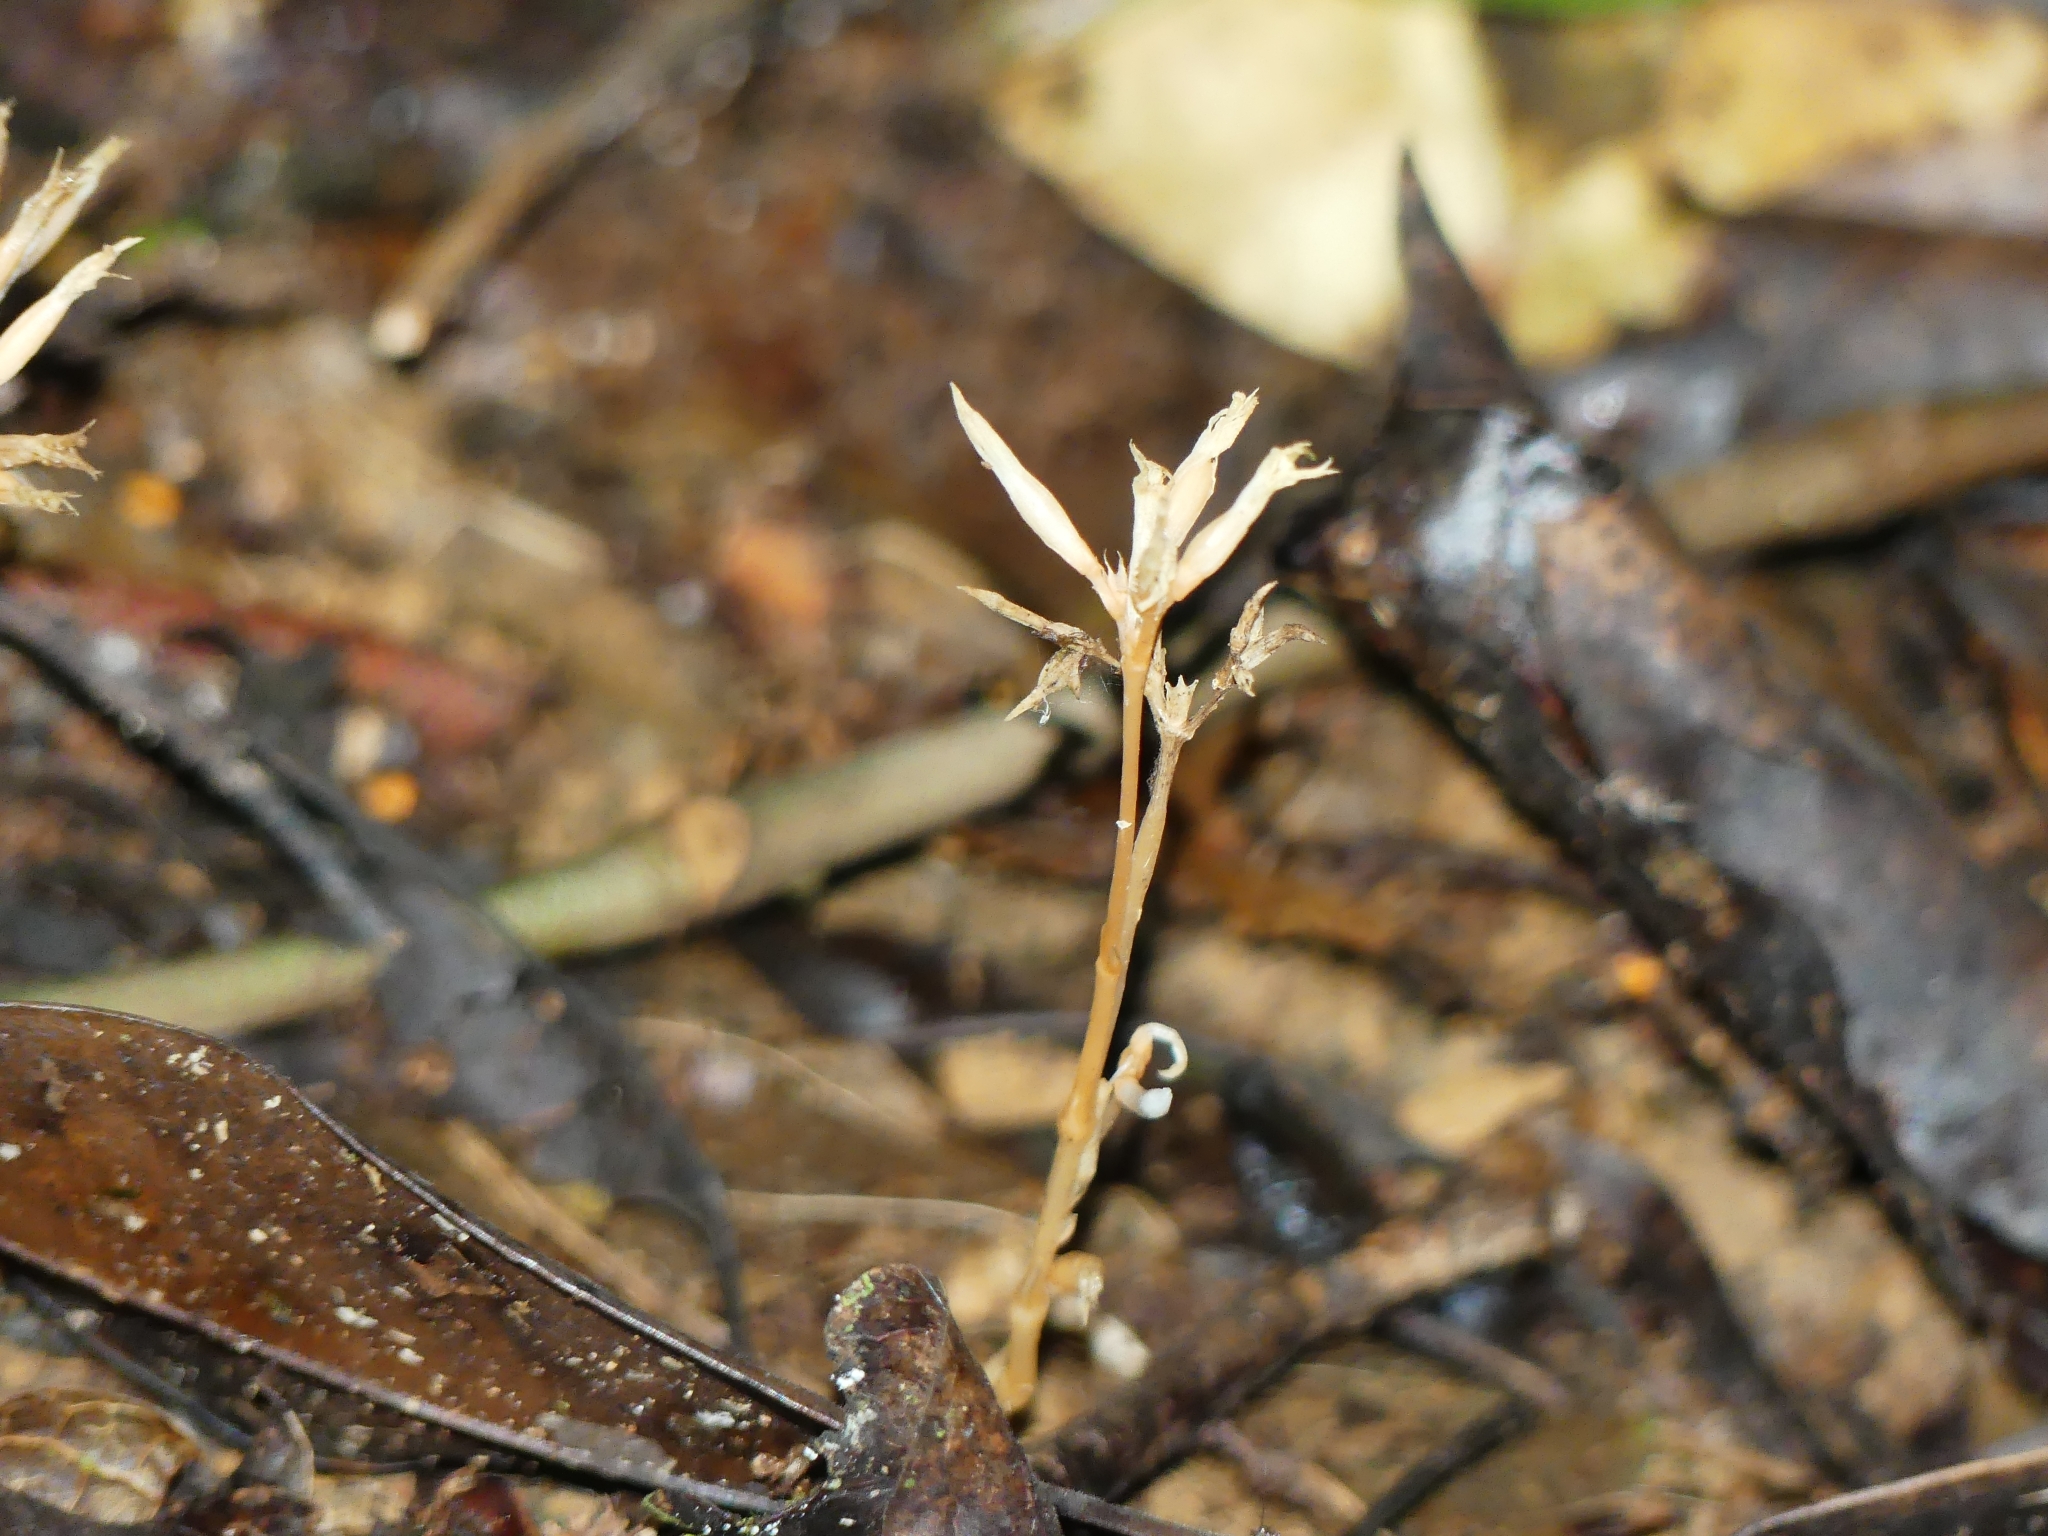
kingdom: Plantae
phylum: Tracheophyta
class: Magnoliopsida
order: Gentianales
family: Gentianaceae
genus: Voyria
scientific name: Voyria corymbosa
